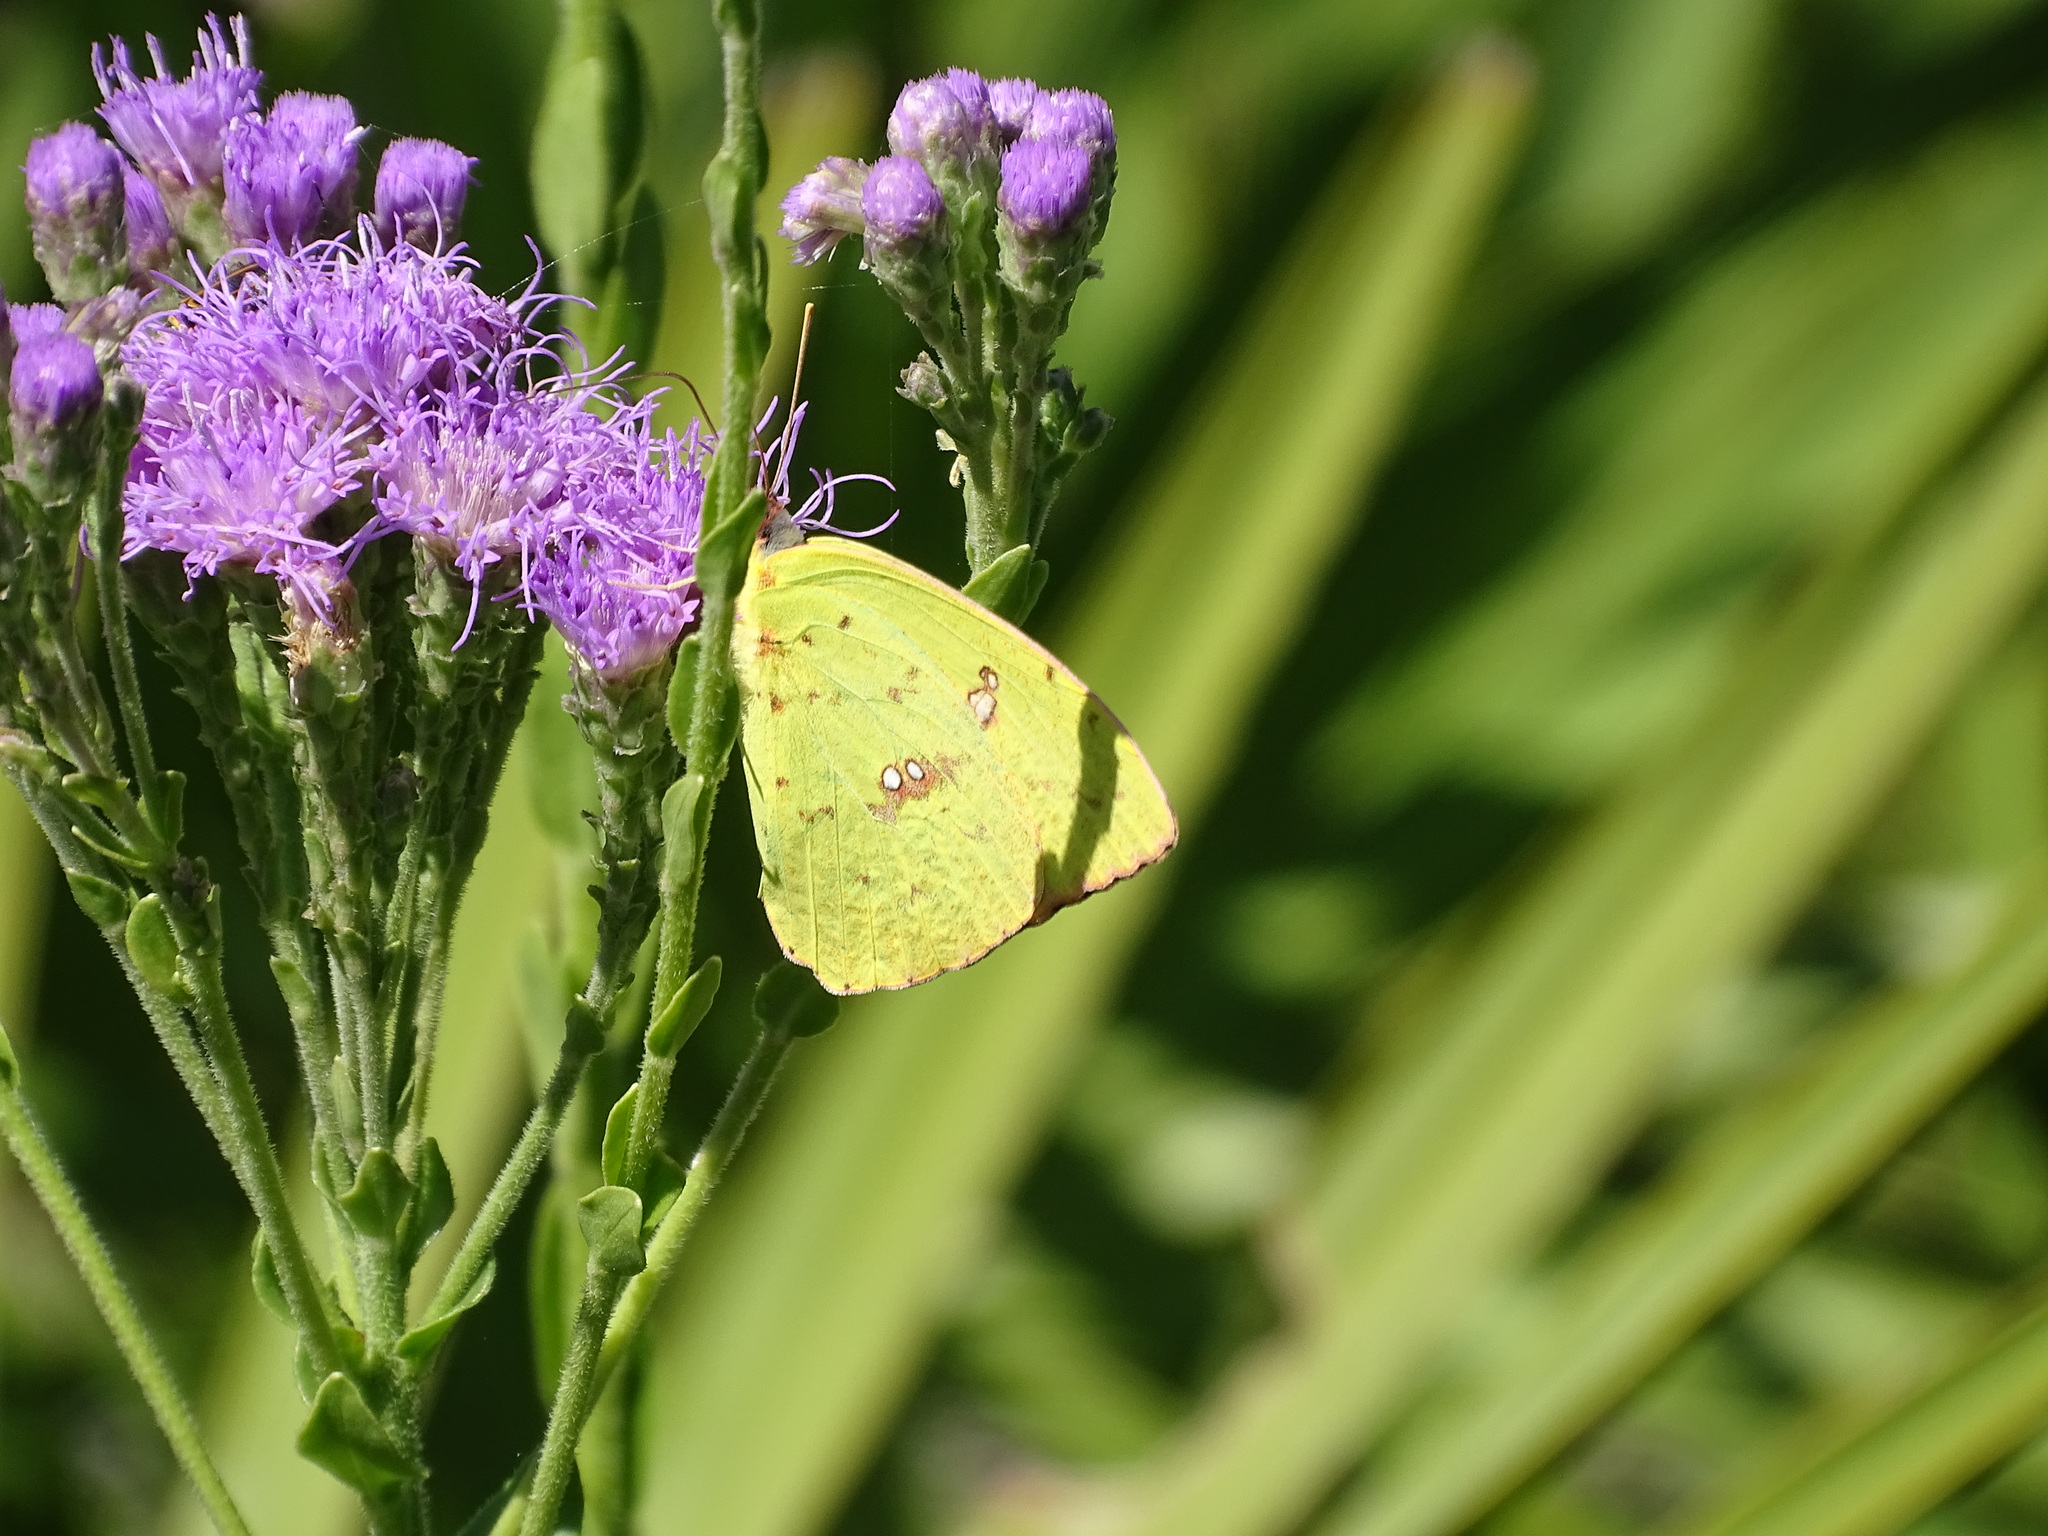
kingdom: Animalia
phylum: Arthropoda
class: Insecta
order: Lepidoptera
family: Pieridae
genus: Phoebis
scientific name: Phoebis sennae
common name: Cloudless sulphur
